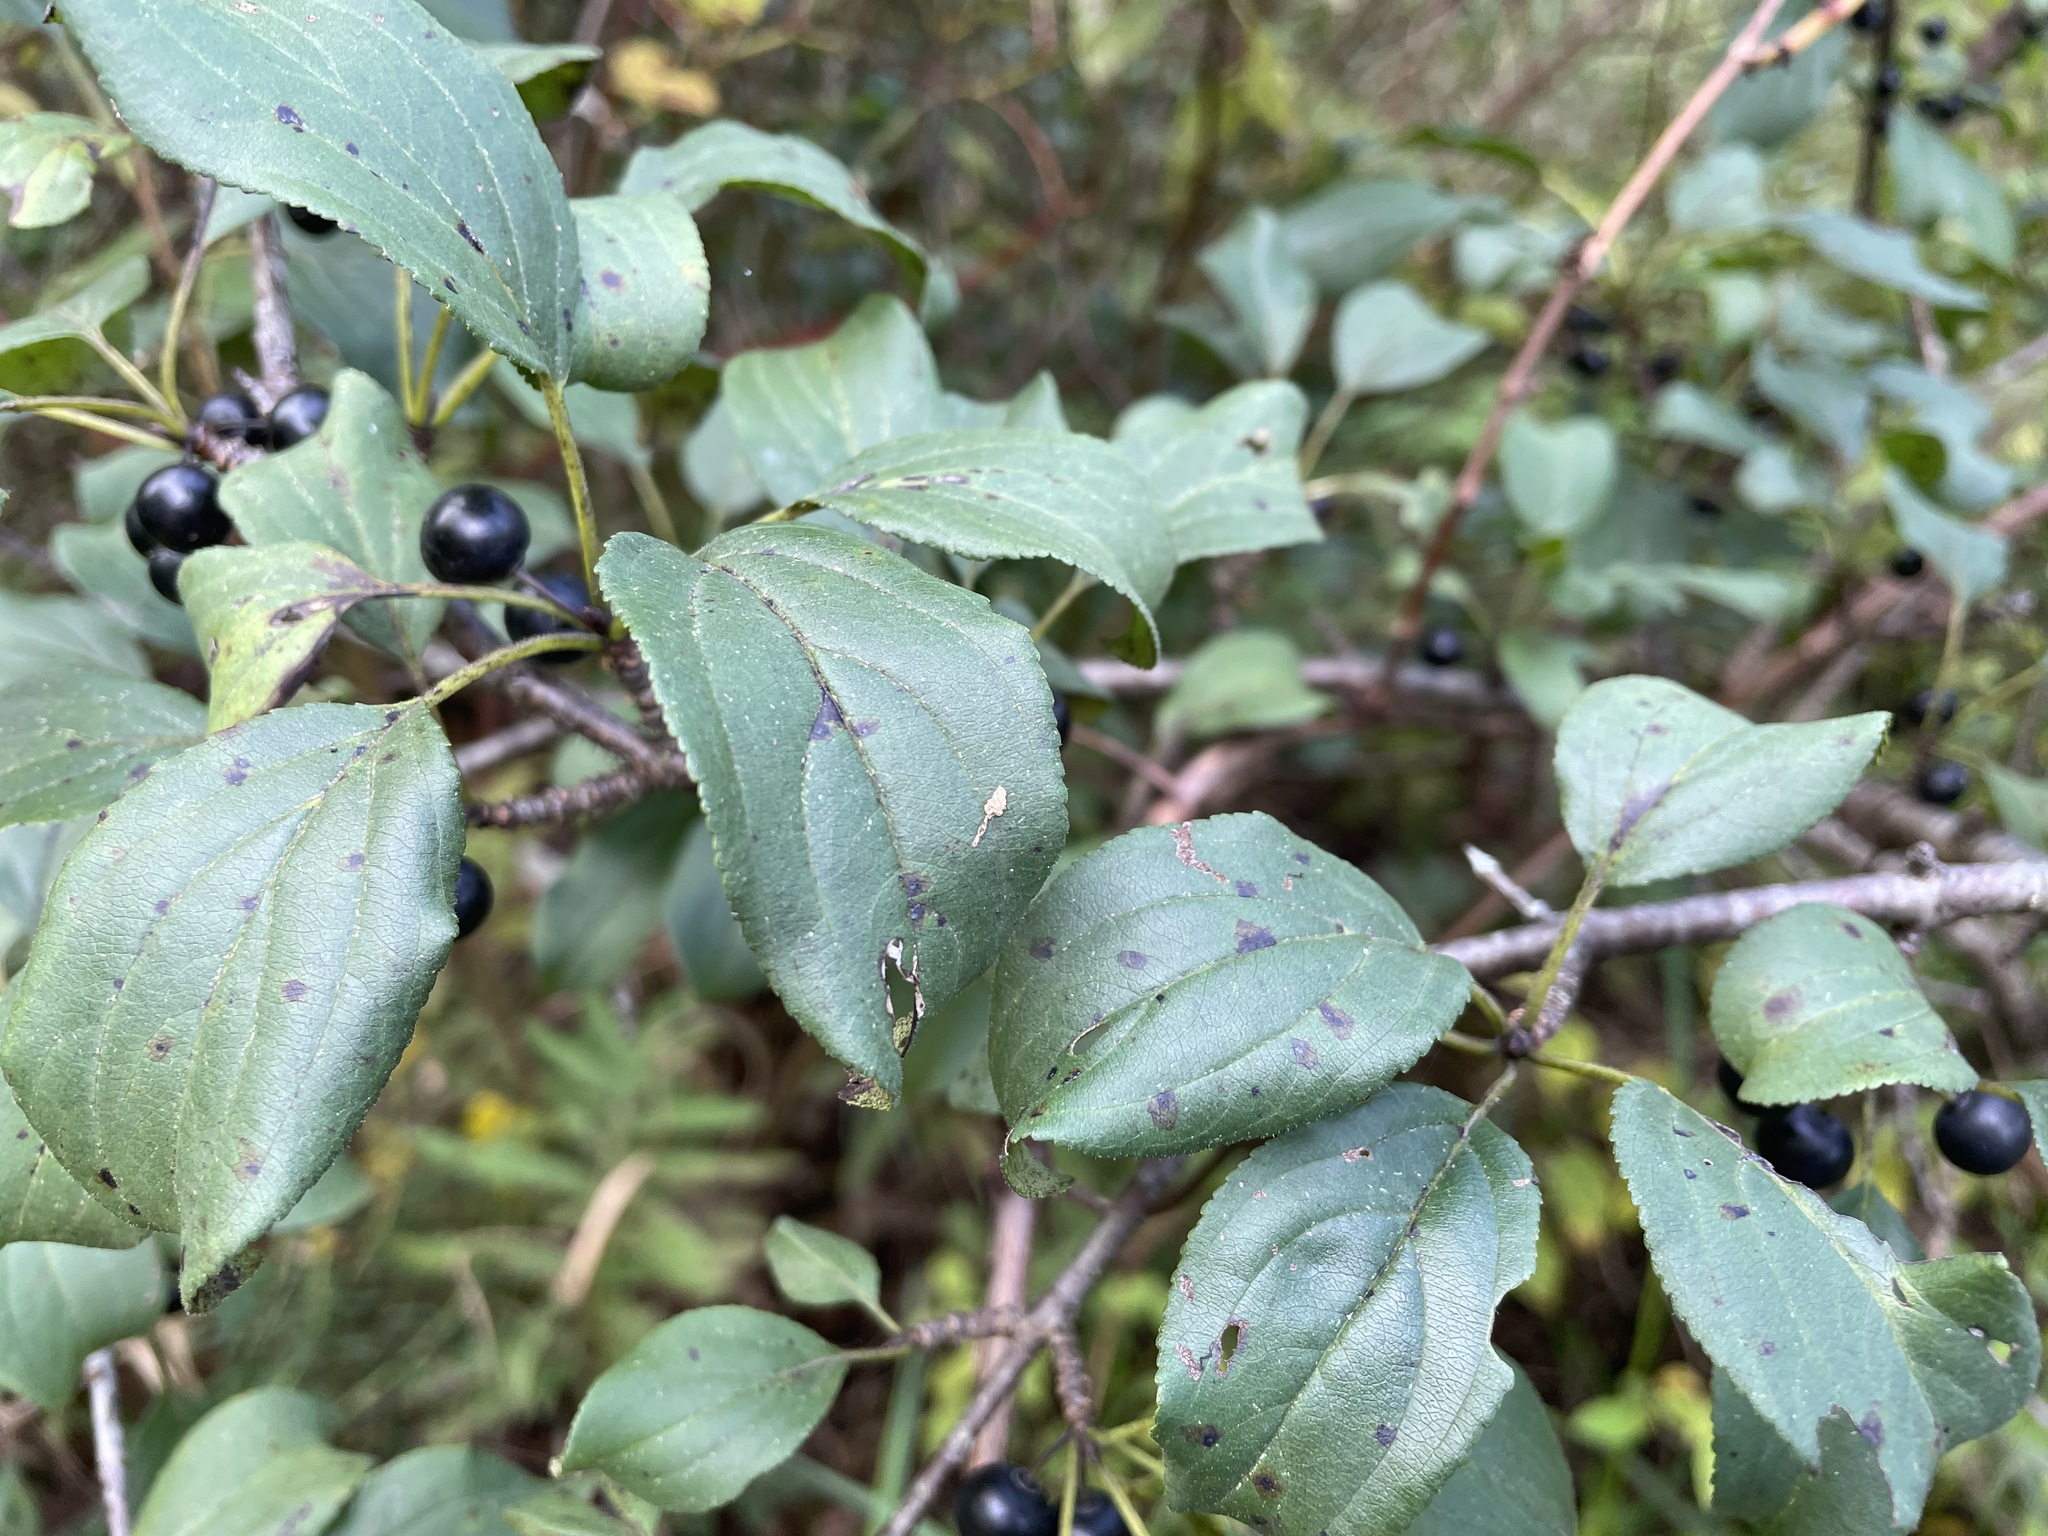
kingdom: Plantae
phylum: Tracheophyta
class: Magnoliopsida
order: Rosales
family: Rhamnaceae
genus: Rhamnus
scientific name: Rhamnus cathartica
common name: Common buckthorn
